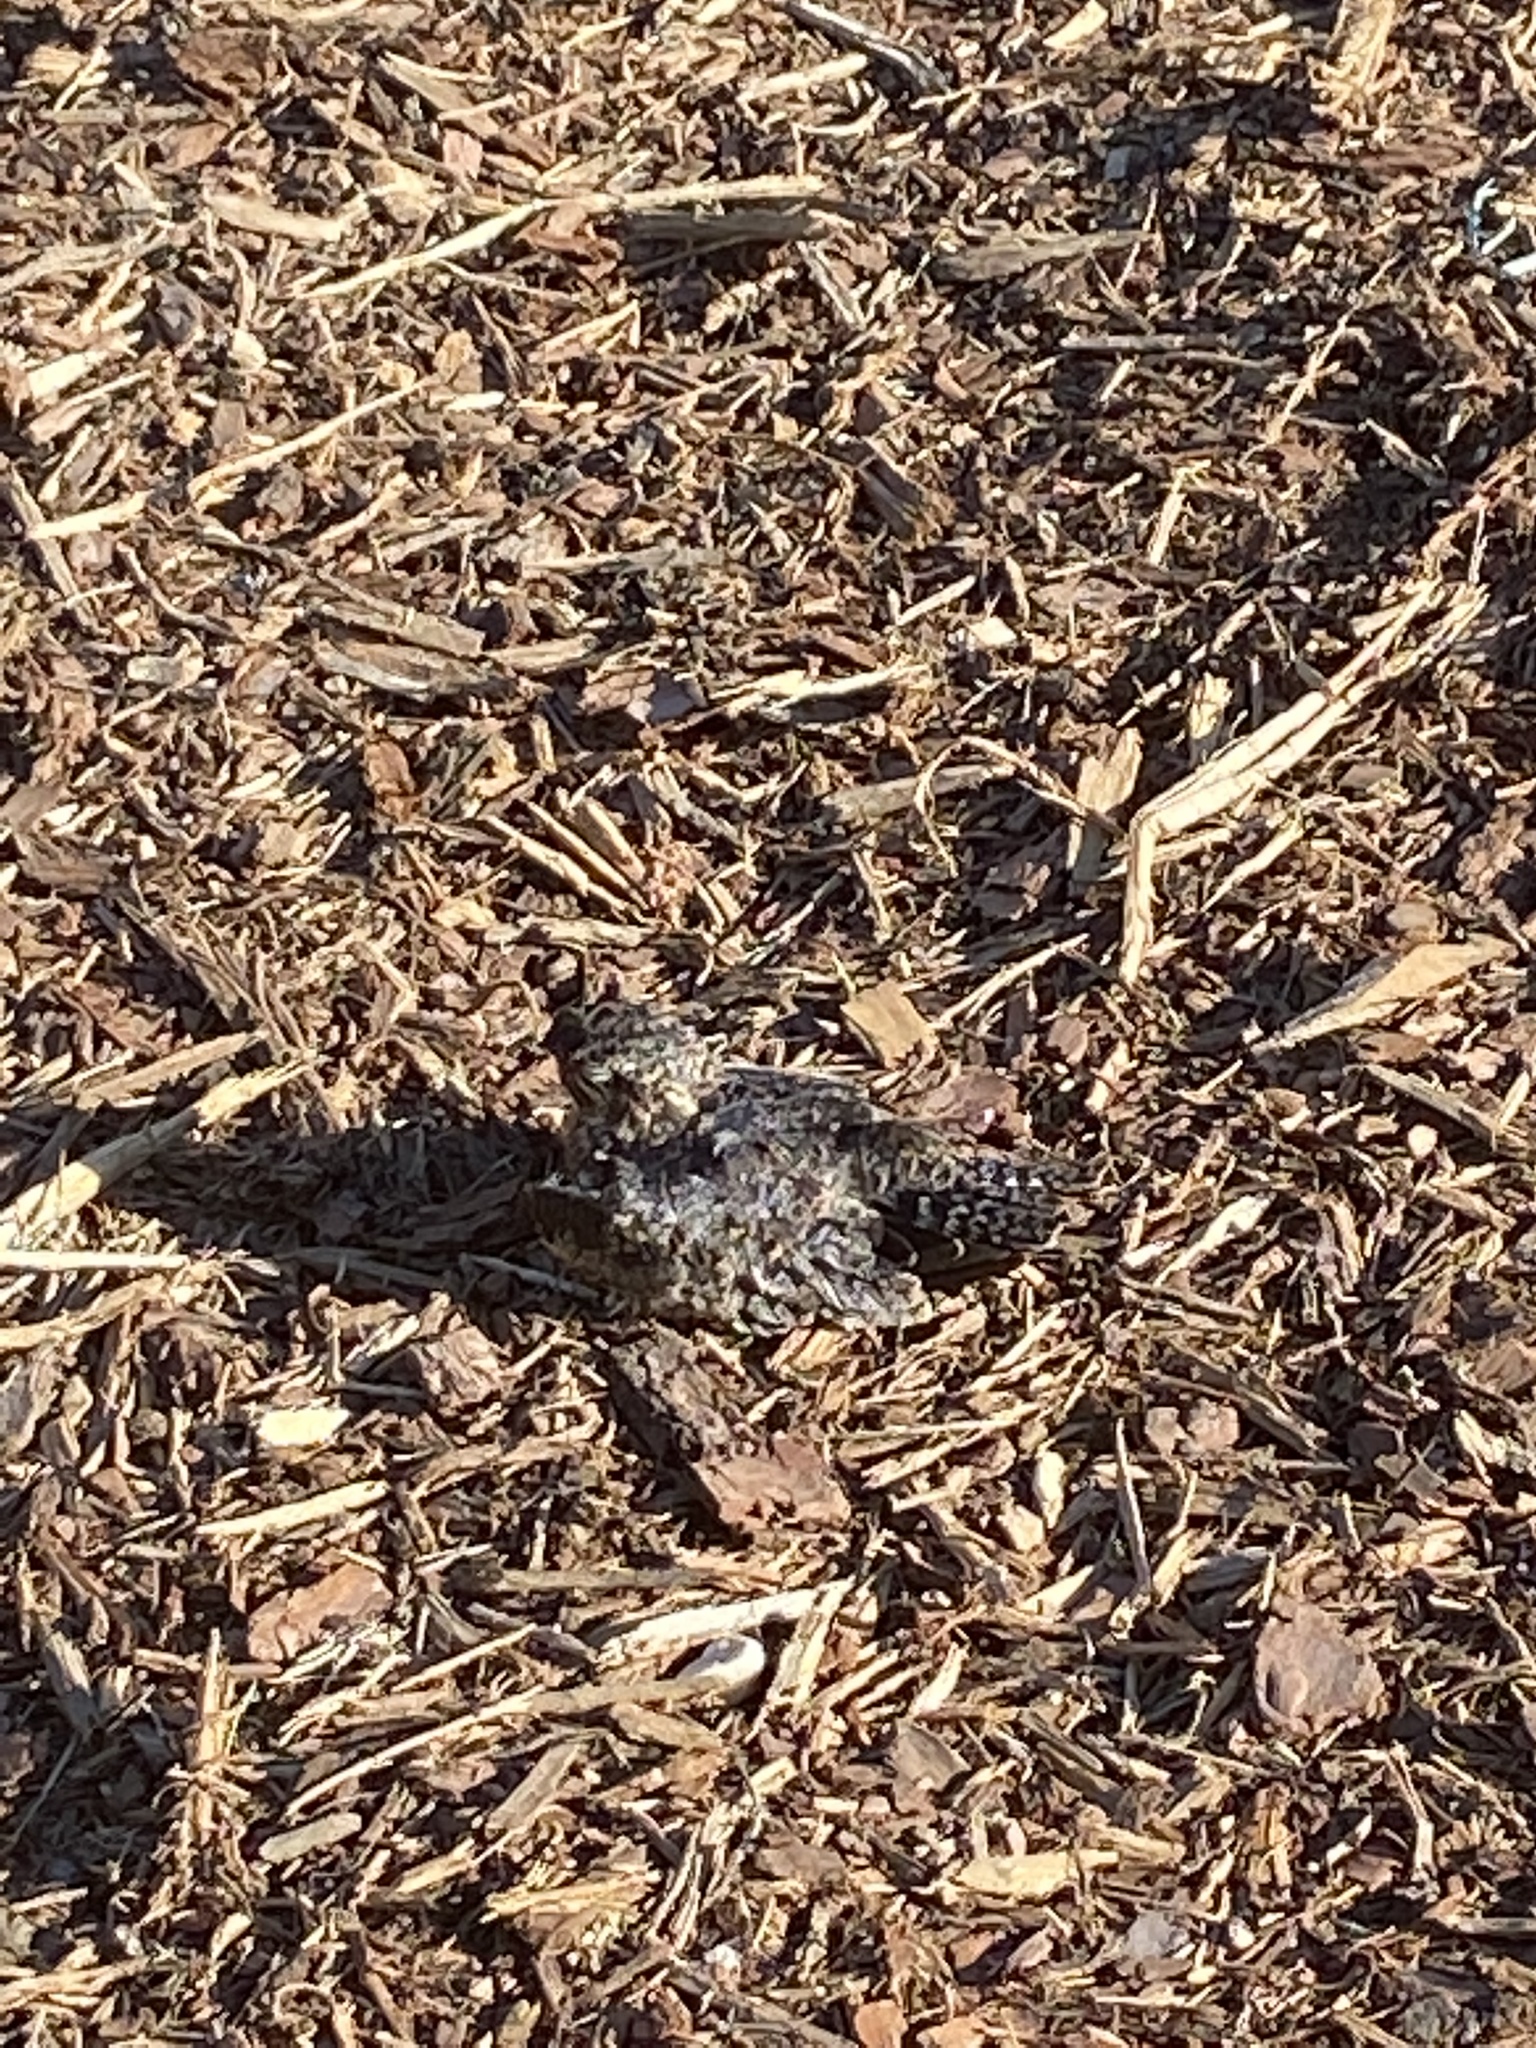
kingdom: Animalia
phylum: Chordata
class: Aves
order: Caprimulgiformes
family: Caprimulgidae
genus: Chordeiles
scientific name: Chordeiles minor
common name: Common nighthawk
